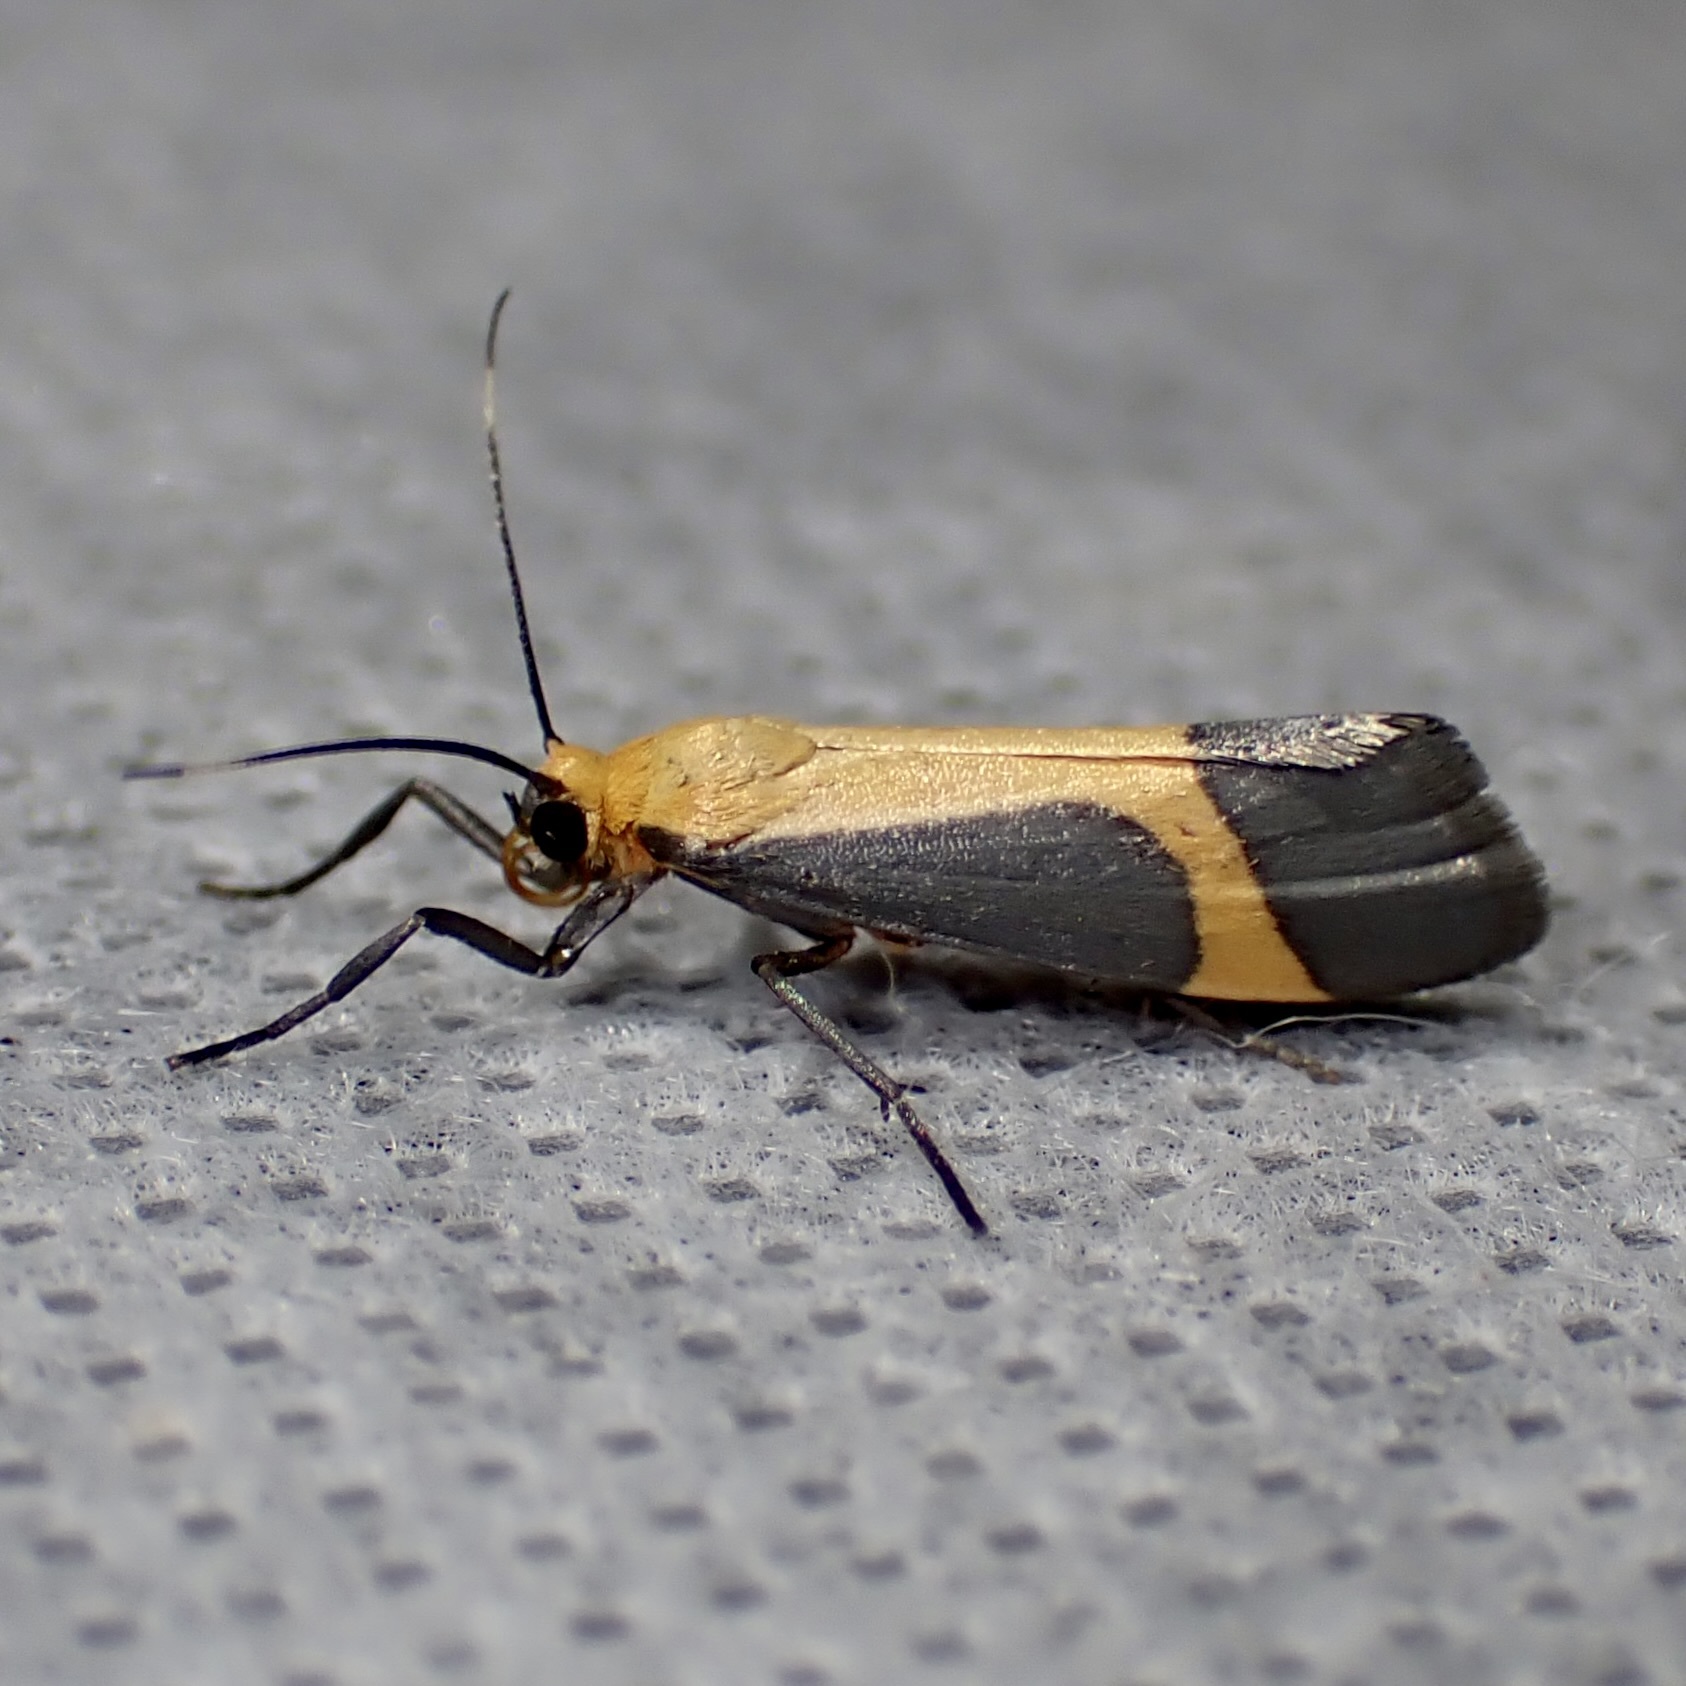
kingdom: Animalia
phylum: Arthropoda
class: Insecta
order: Lepidoptera
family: Erebidae
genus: Cisthene
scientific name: Cisthene angelus
